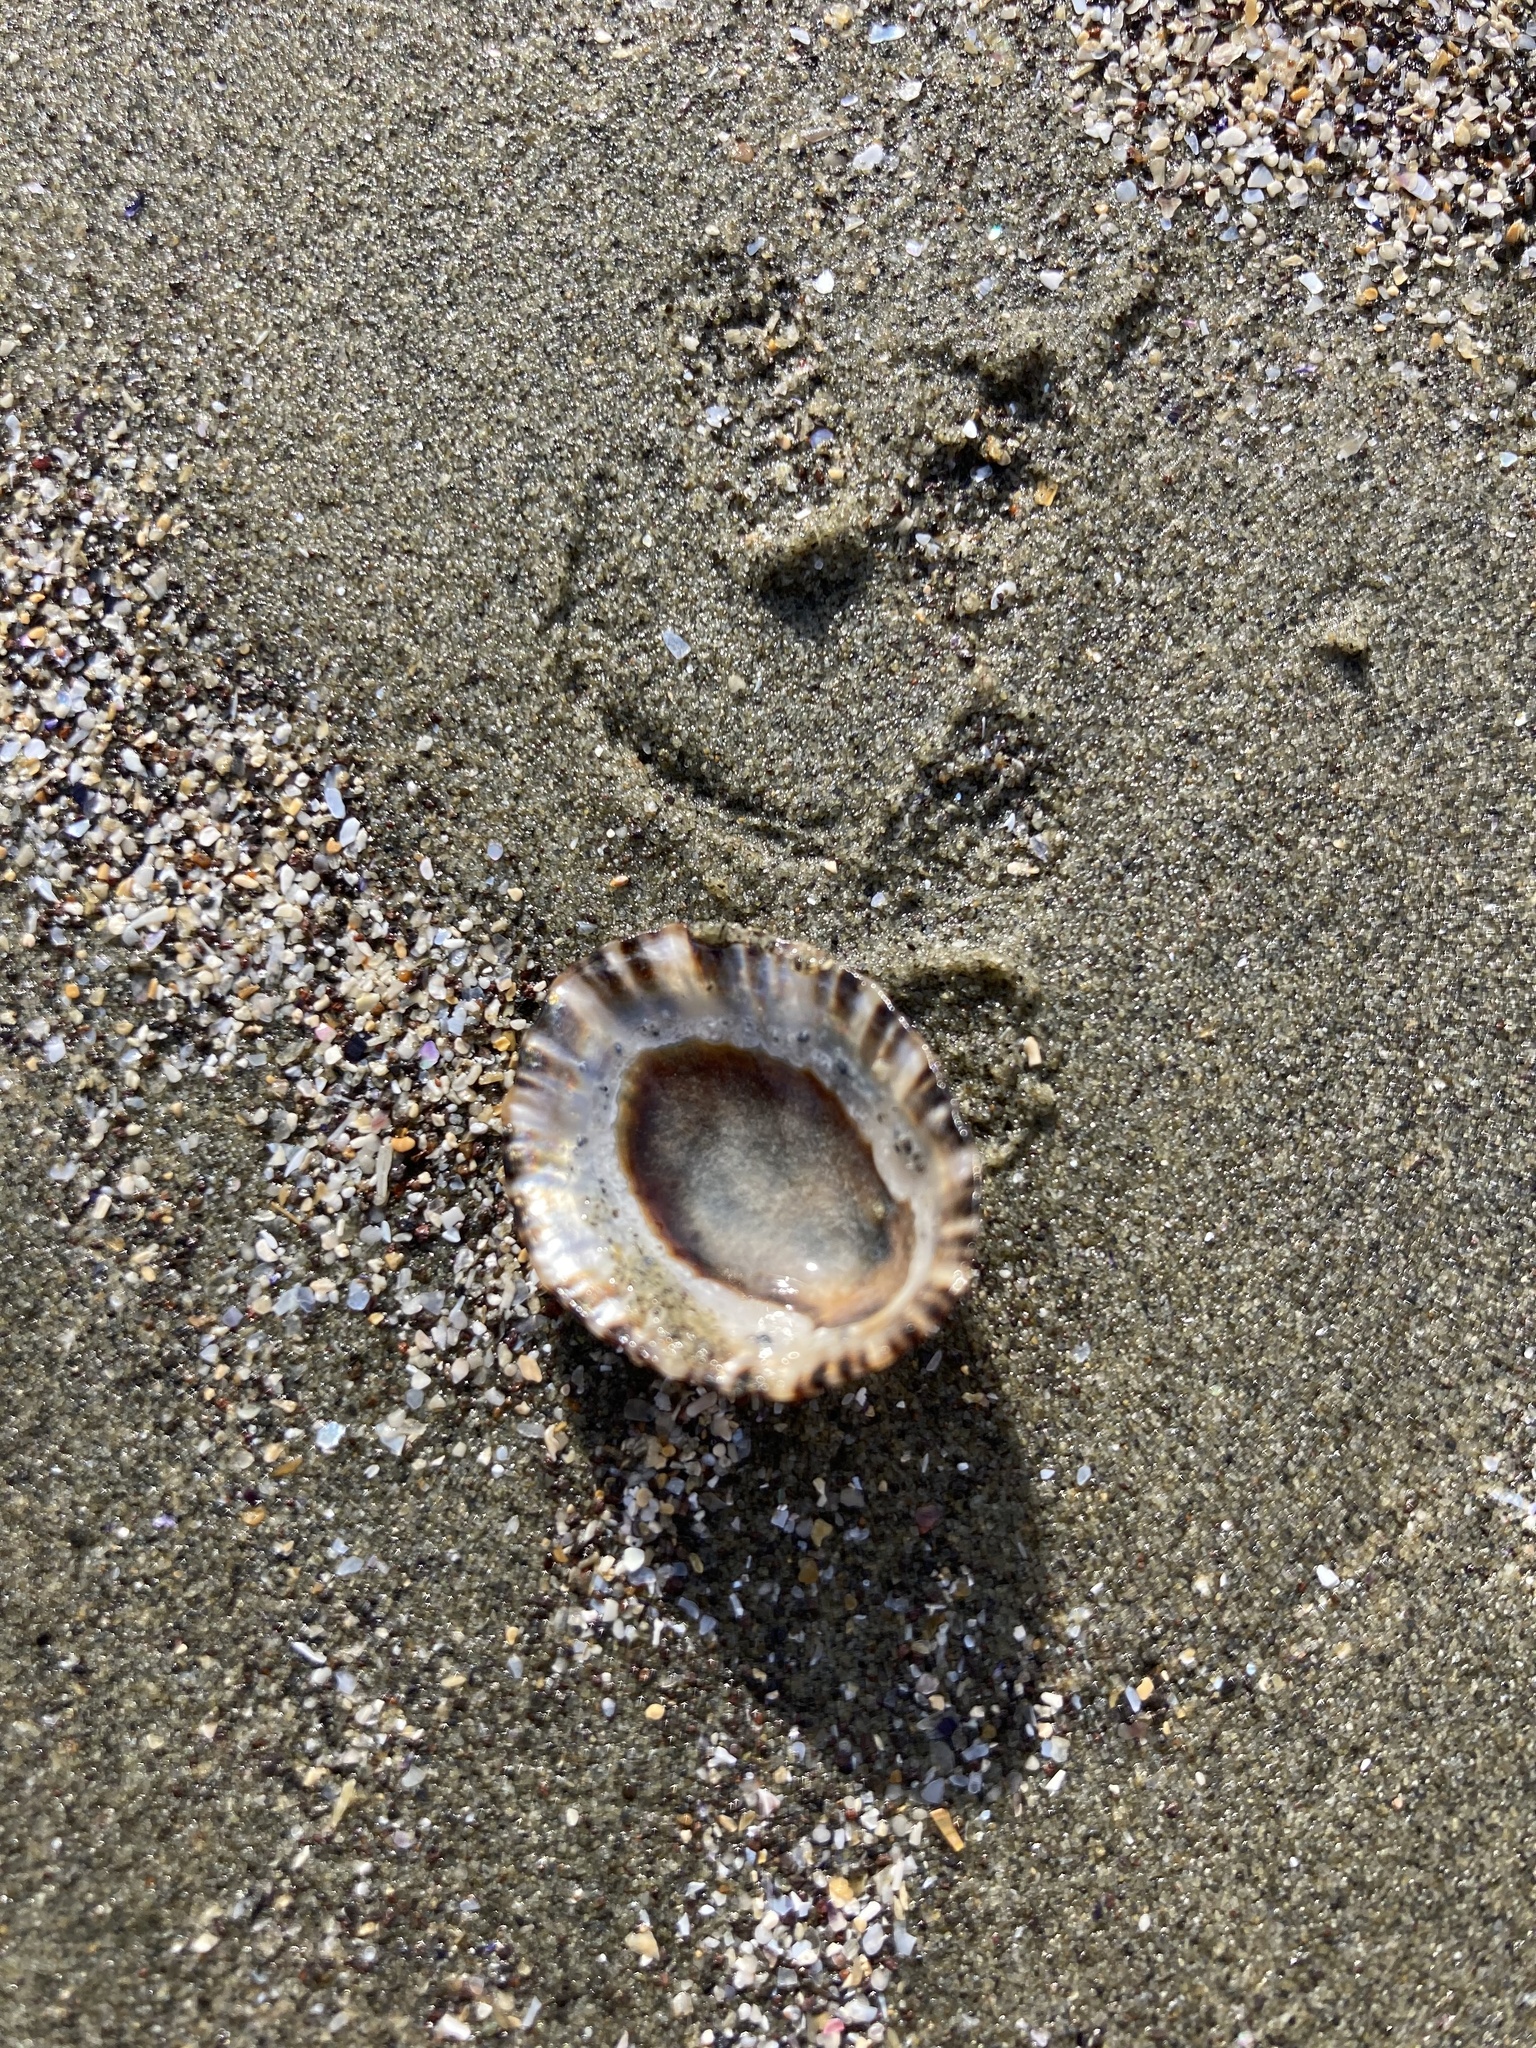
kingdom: Animalia
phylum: Mollusca
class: Gastropoda
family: Nacellidae
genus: Cellana
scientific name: Cellana ornata
